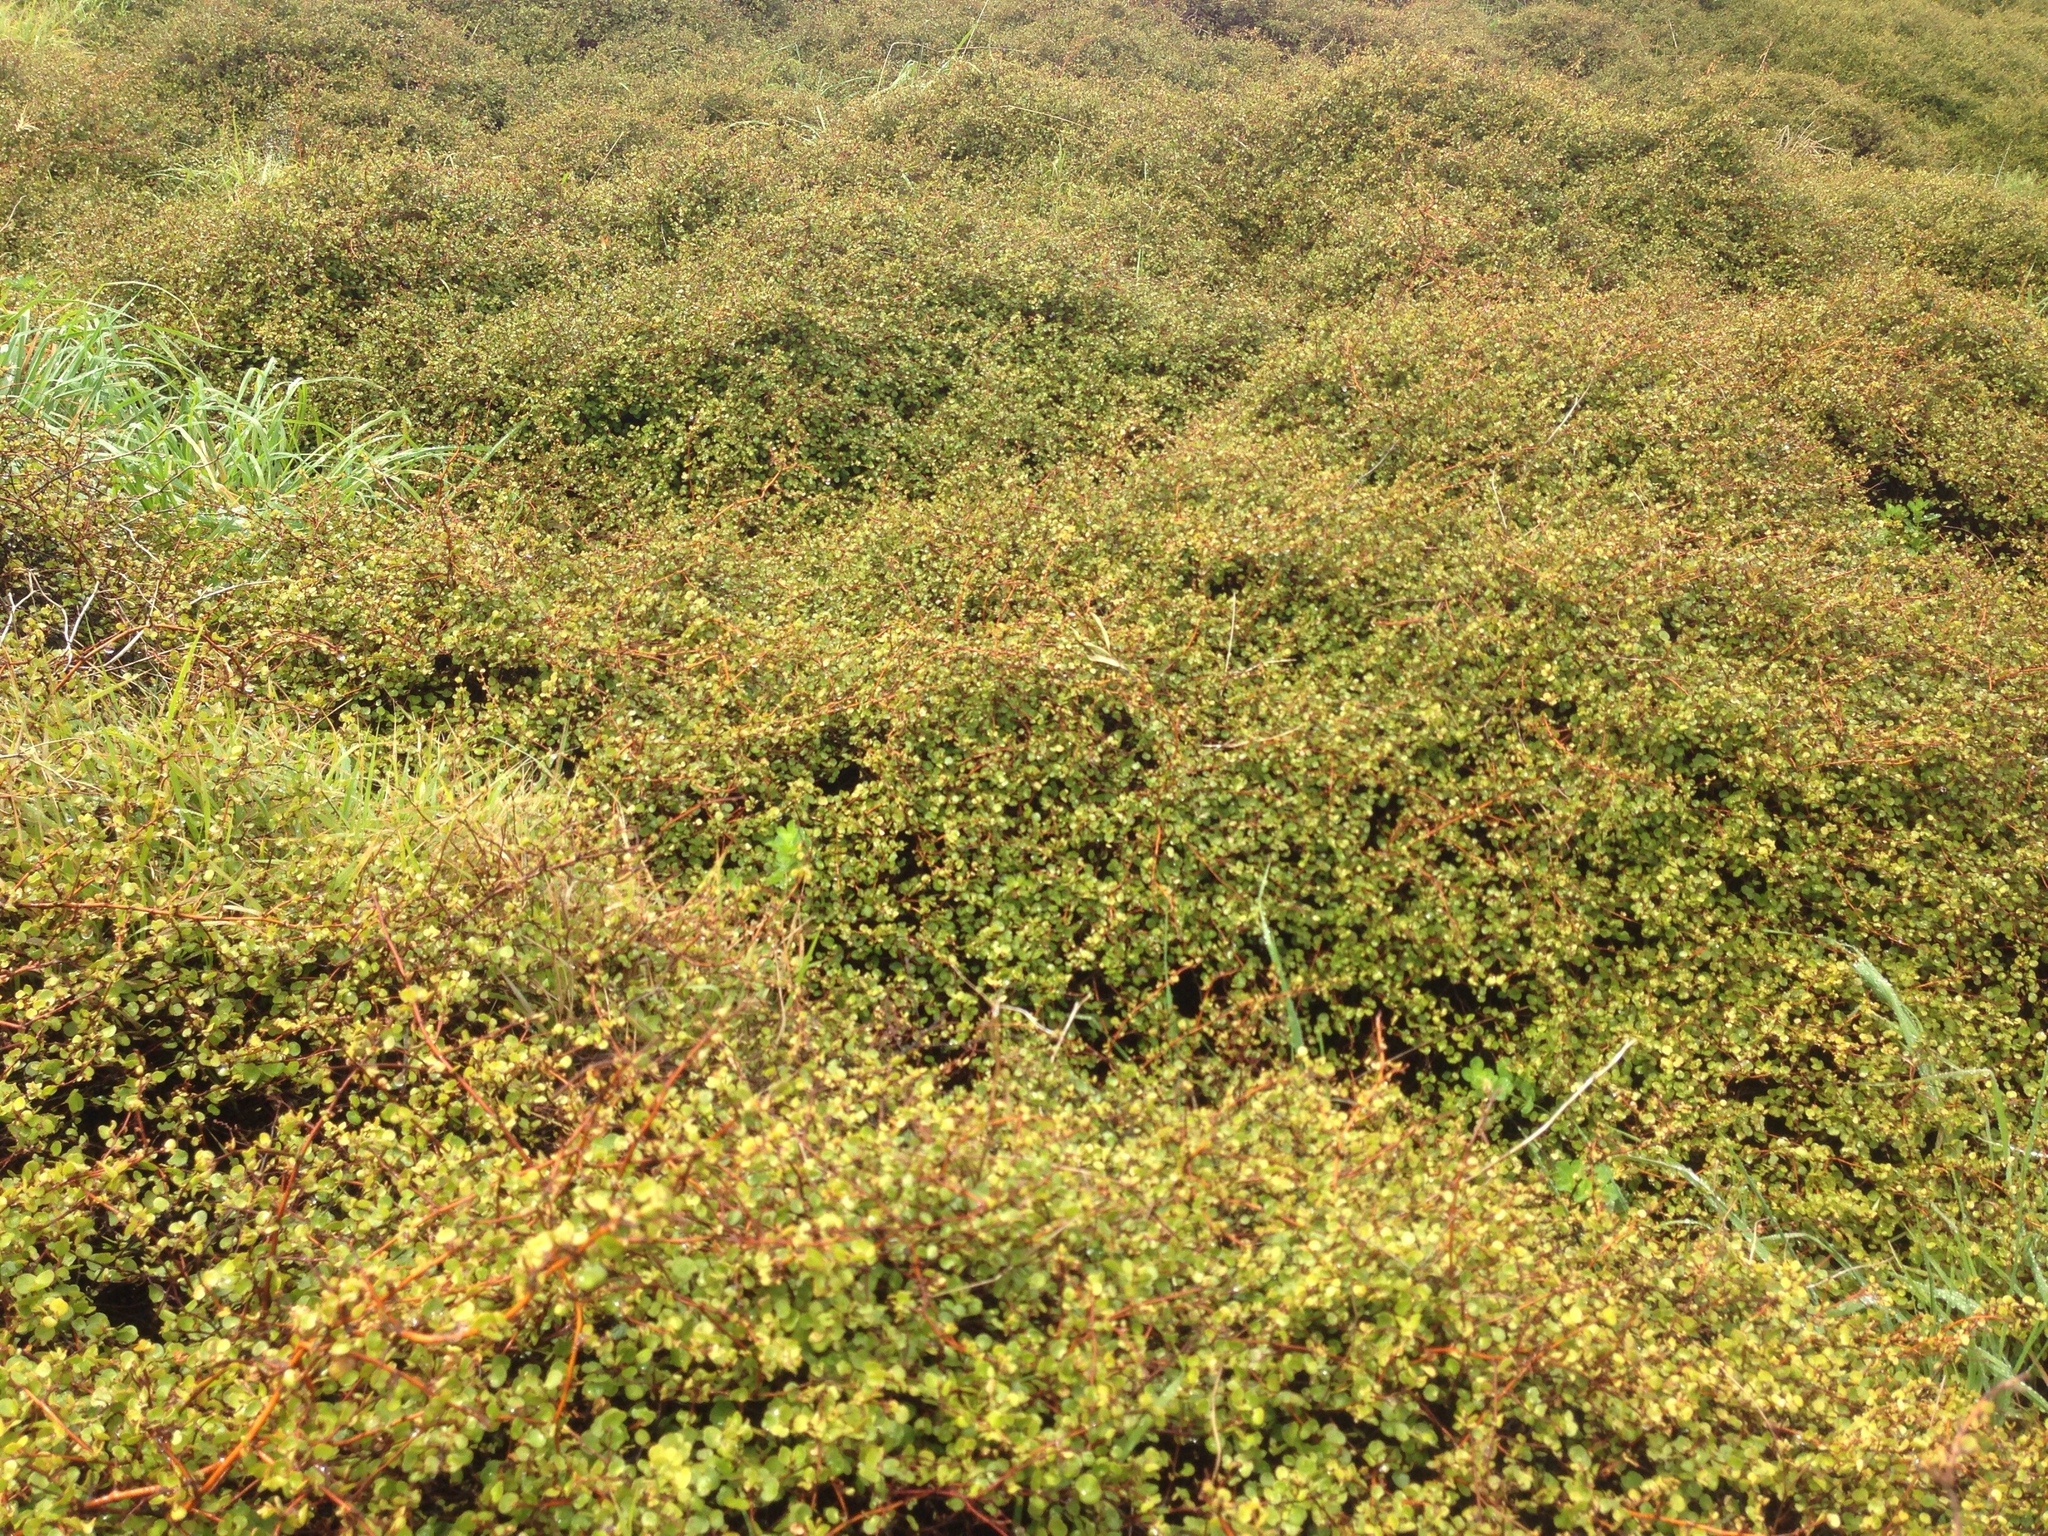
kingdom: Plantae
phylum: Tracheophyta
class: Magnoliopsida
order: Caryophyllales
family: Polygonaceae
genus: Muehlenbeckia
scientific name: Muehlenbeckia complexa
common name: Wireplant
